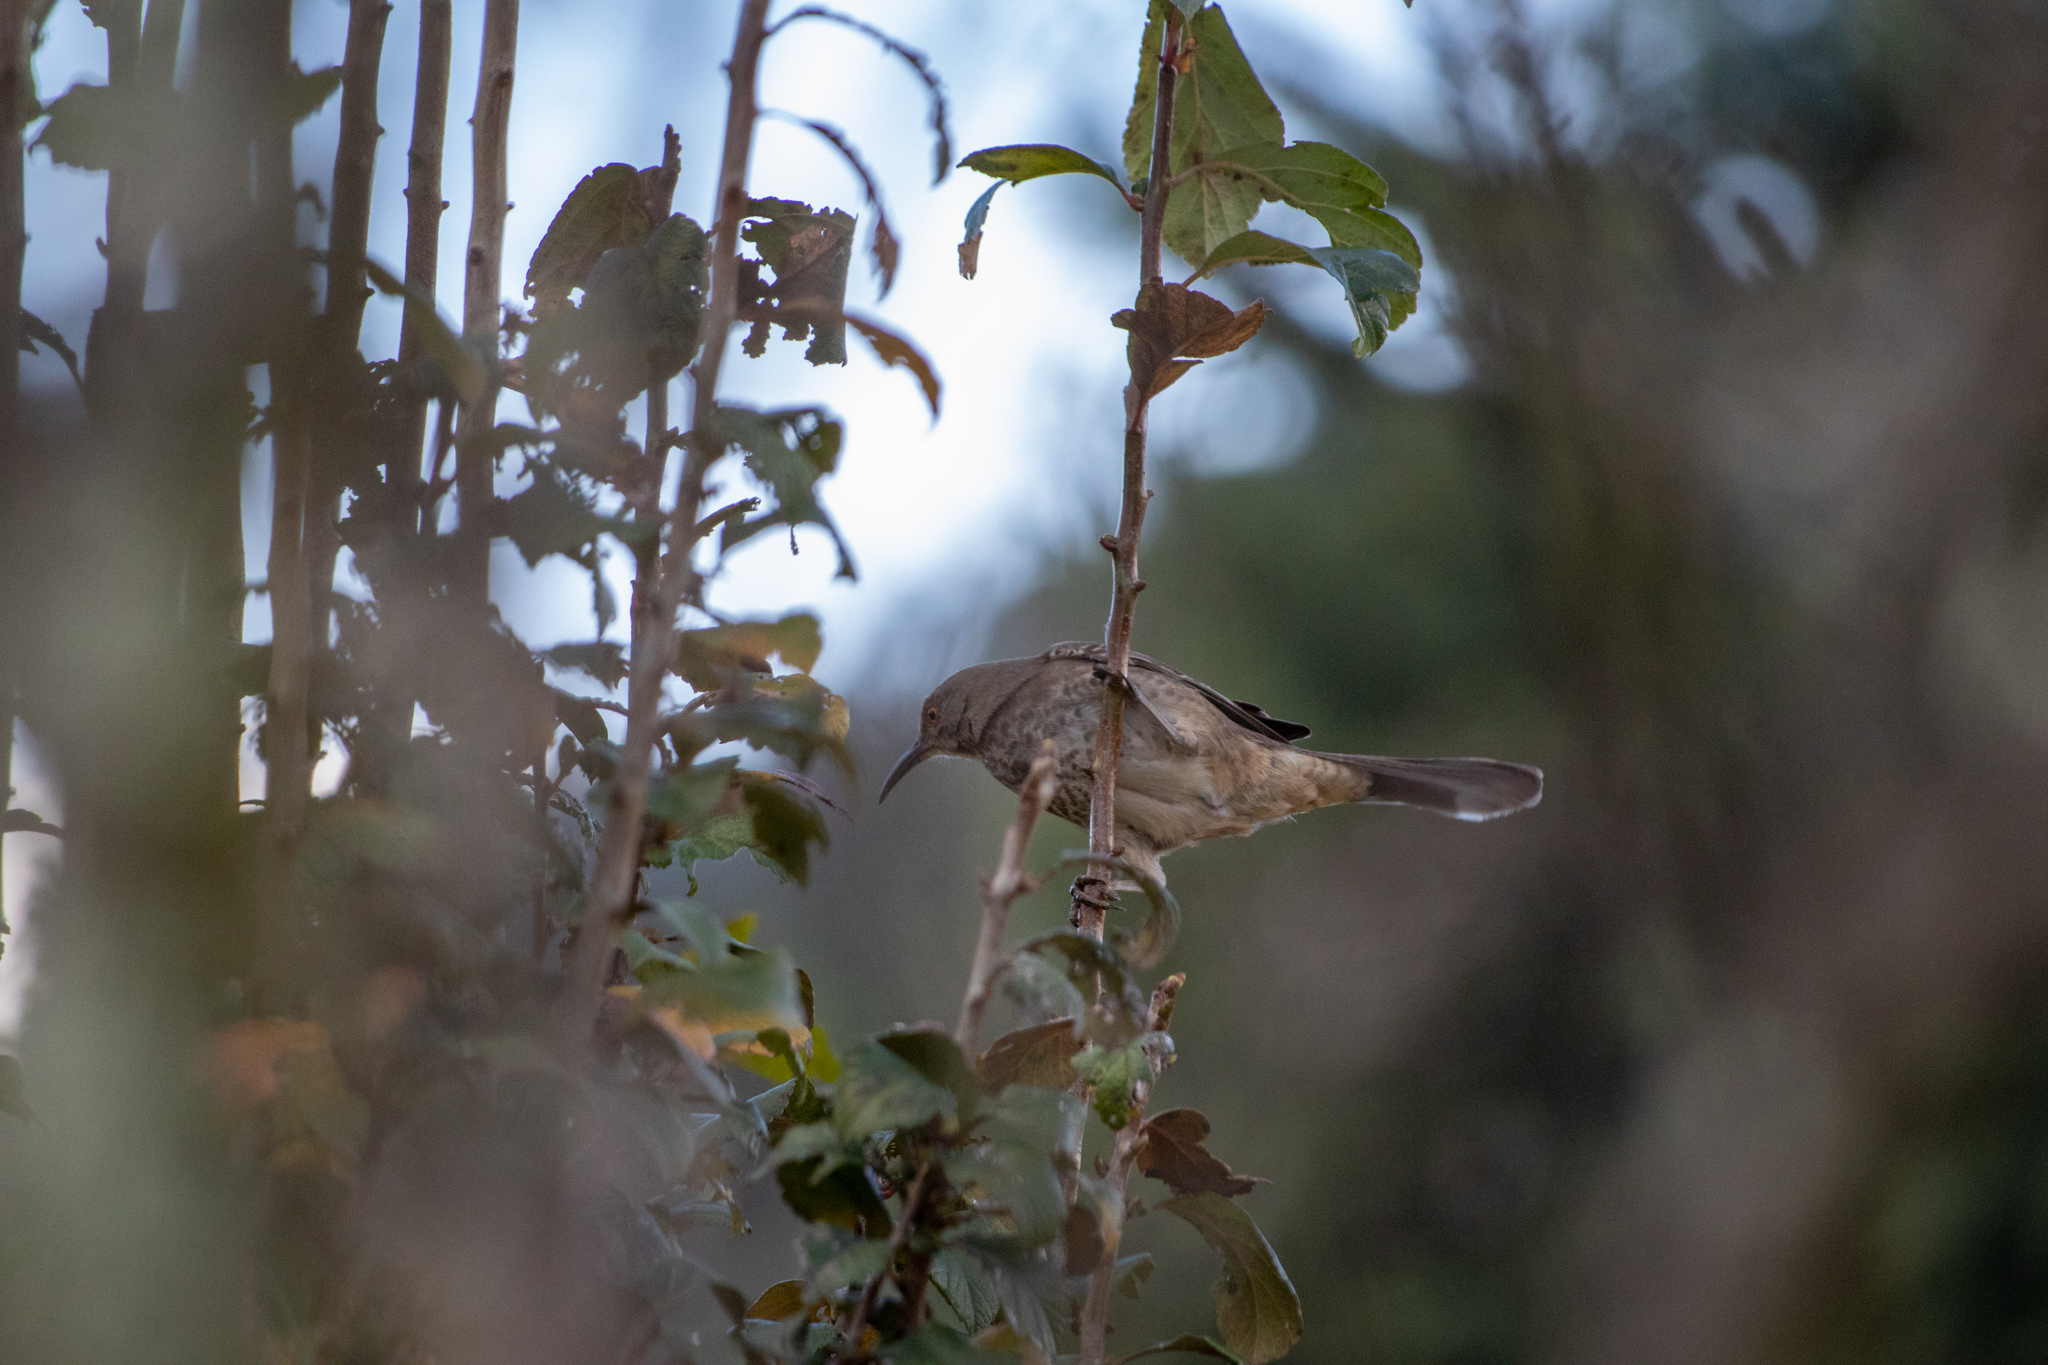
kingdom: Animalia
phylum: Chordata
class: Aves
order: Passeriformes
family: Mimidae
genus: Toxostoma
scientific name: Toxostoma curvirostre
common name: Curve-billed thrasher
